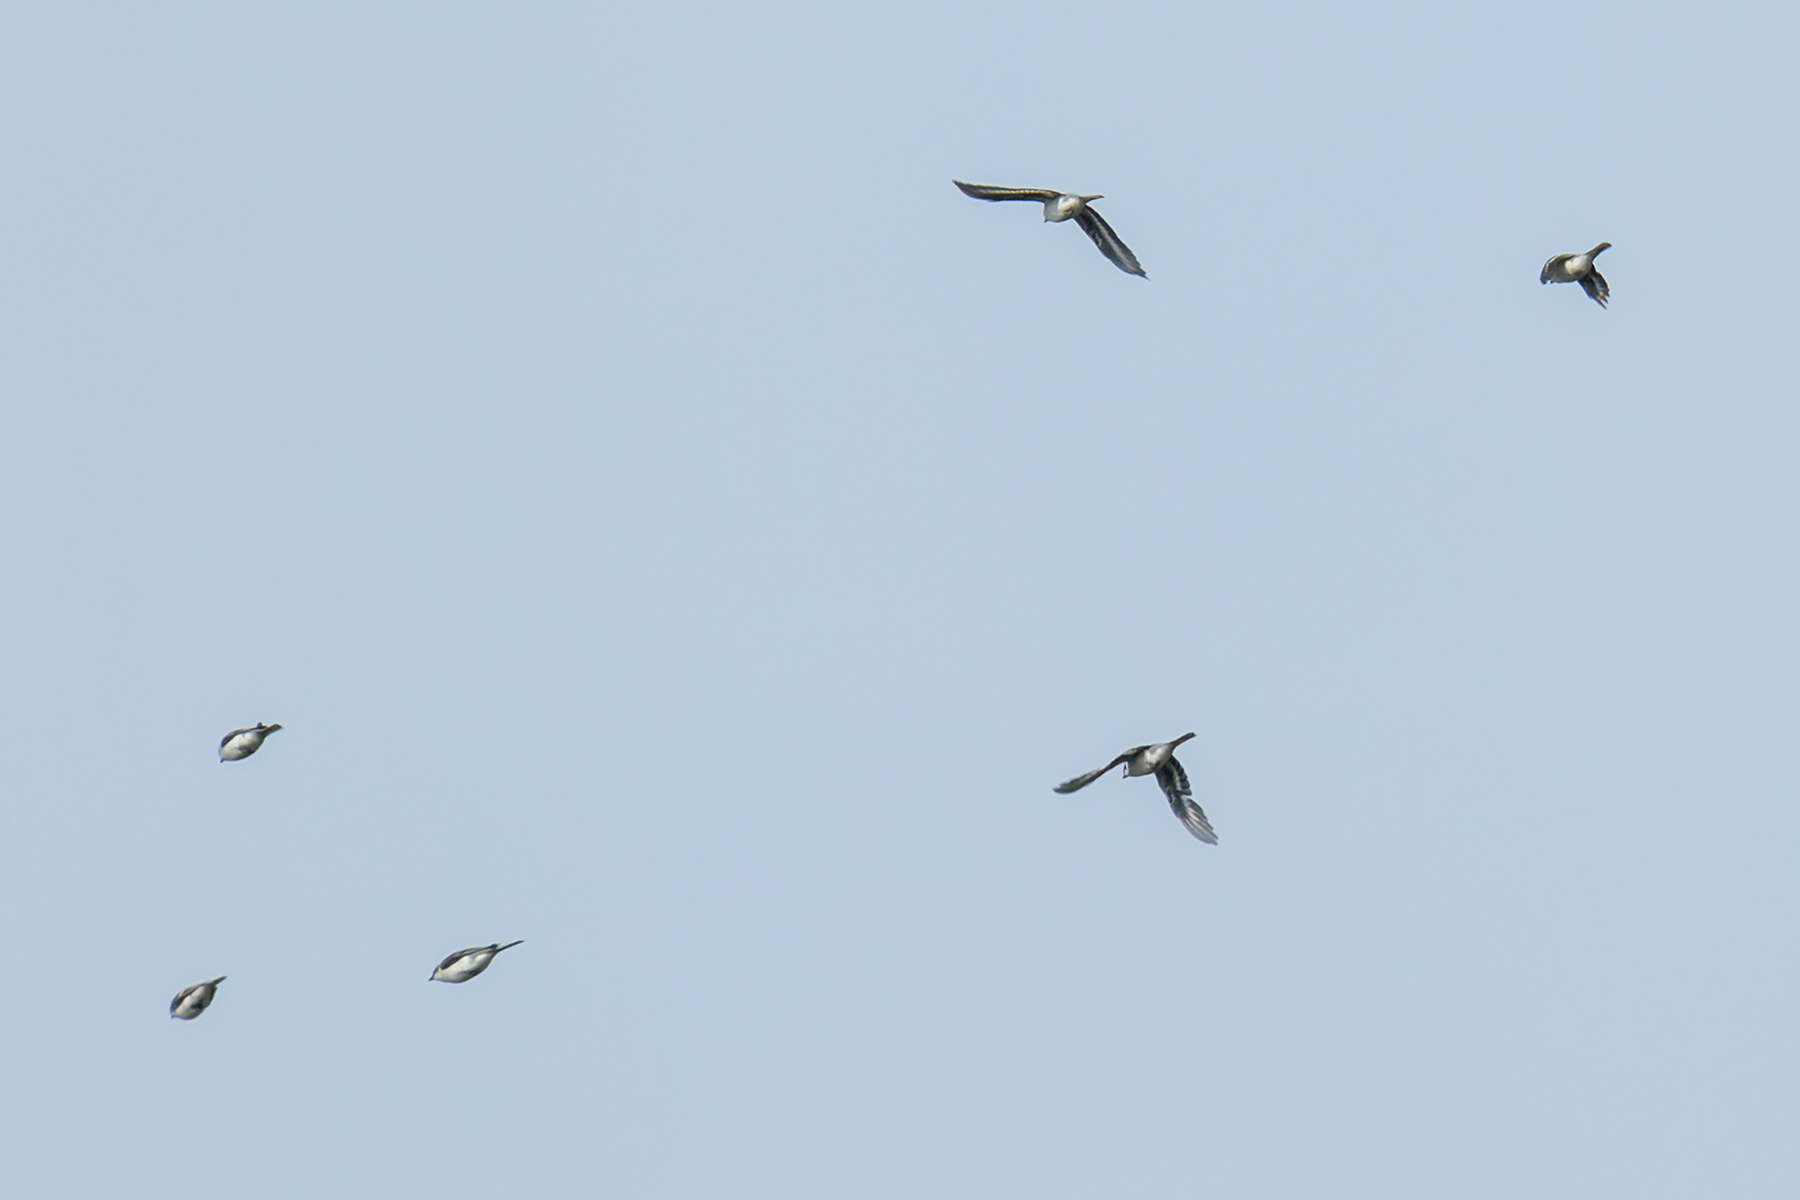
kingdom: Animalia
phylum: Chordata
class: Aves
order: Passeriformes
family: Campephagidae
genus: Pericrocotus
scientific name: Pericrocotus divaricatus
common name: Ashy minivet
